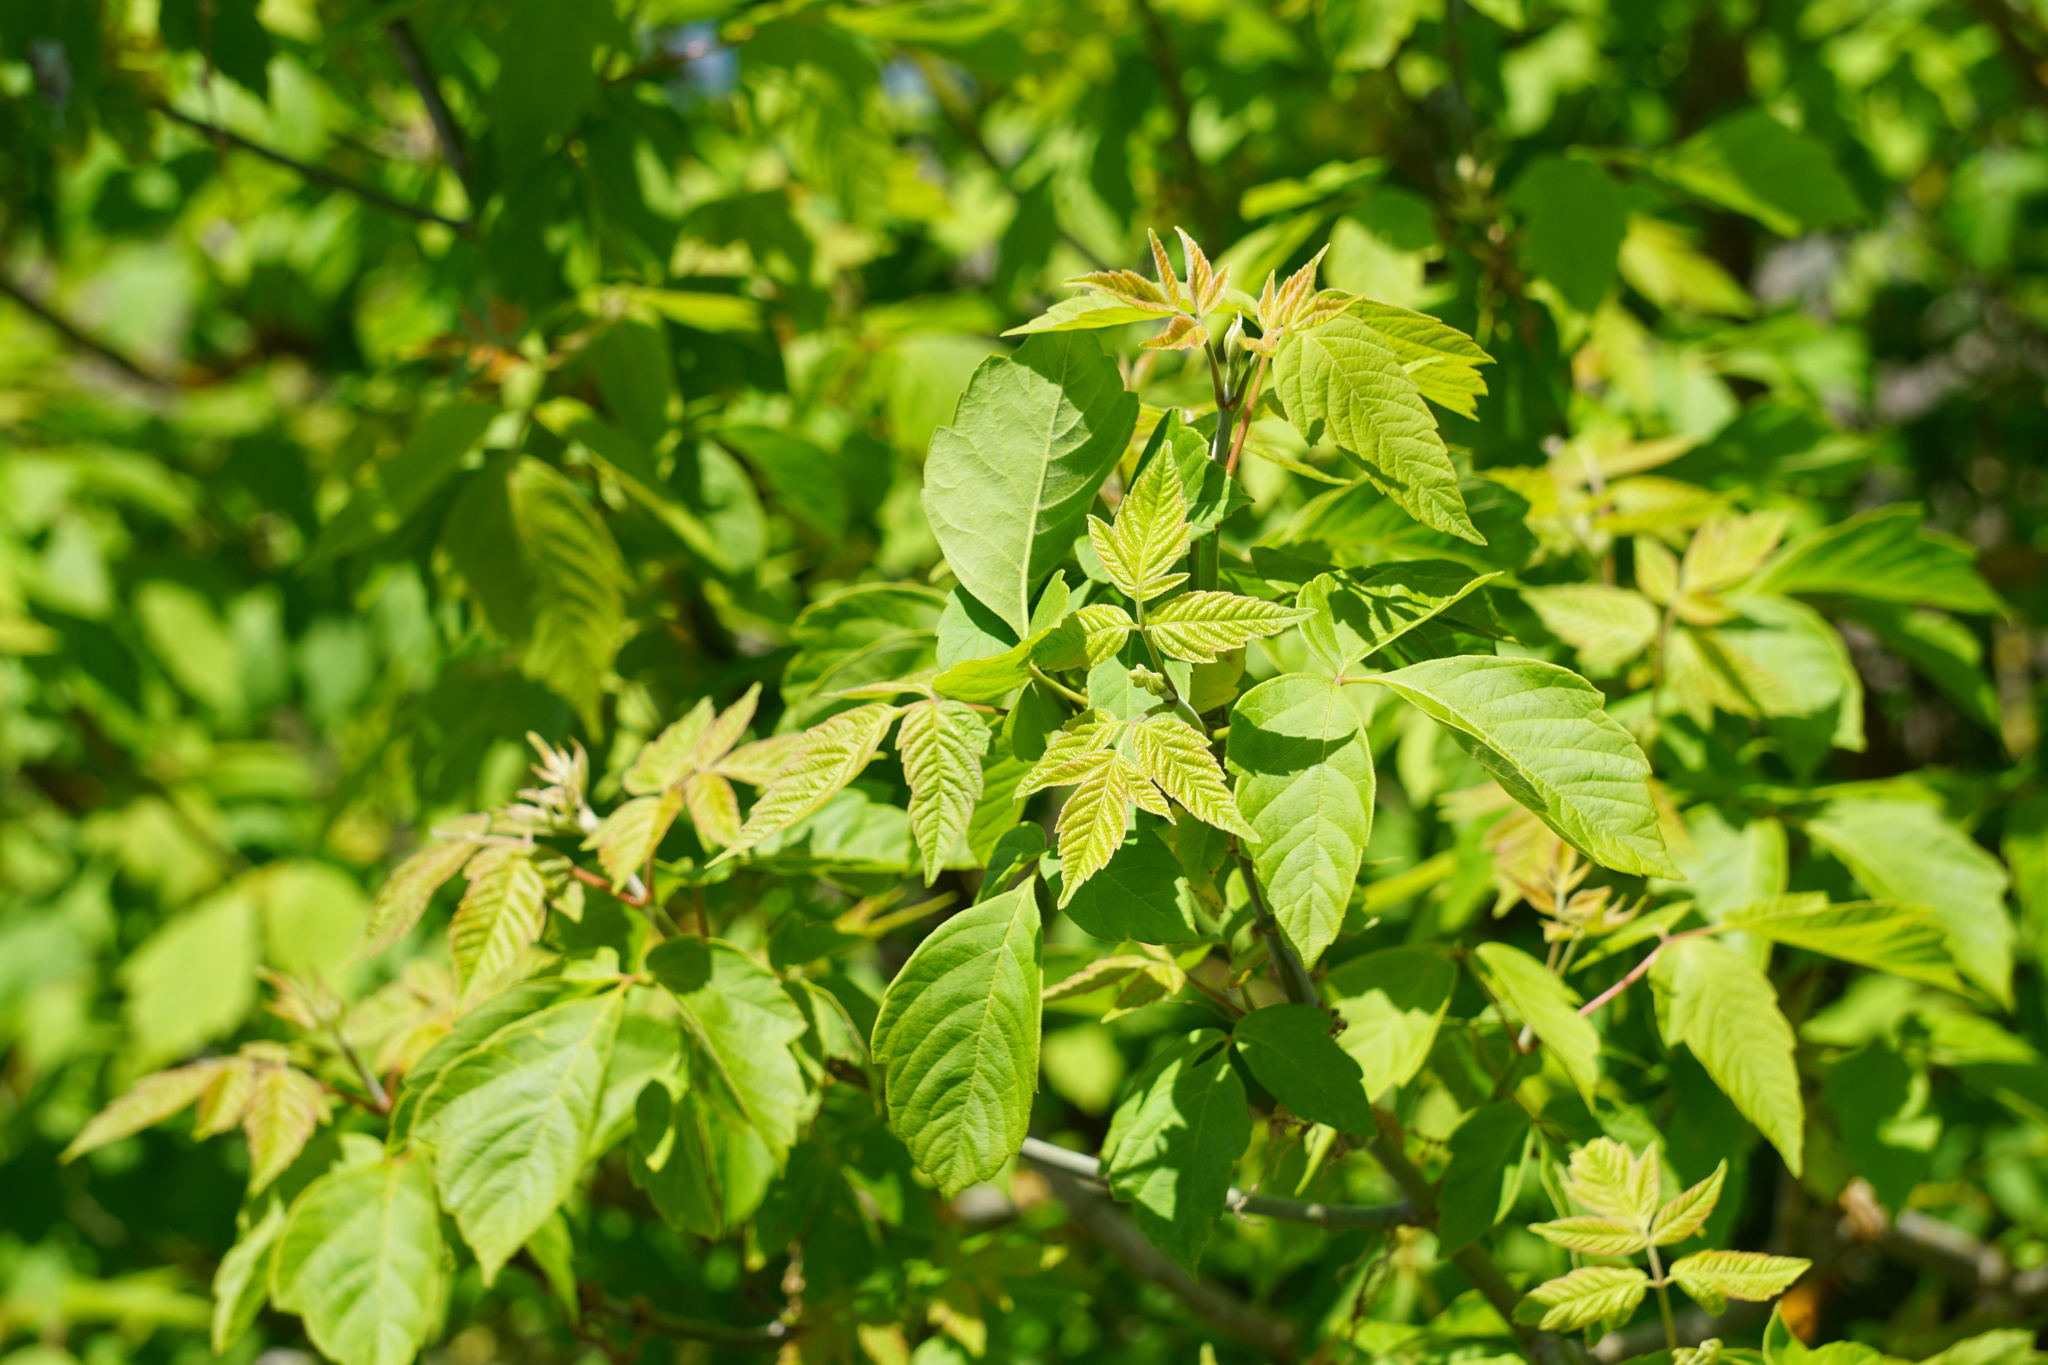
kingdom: Plantae
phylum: Tracheophyta
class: Magnoliopsida
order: Sapindales
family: Sapindaceae
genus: Acer
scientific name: Acer negundo
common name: Ashleaf maple
